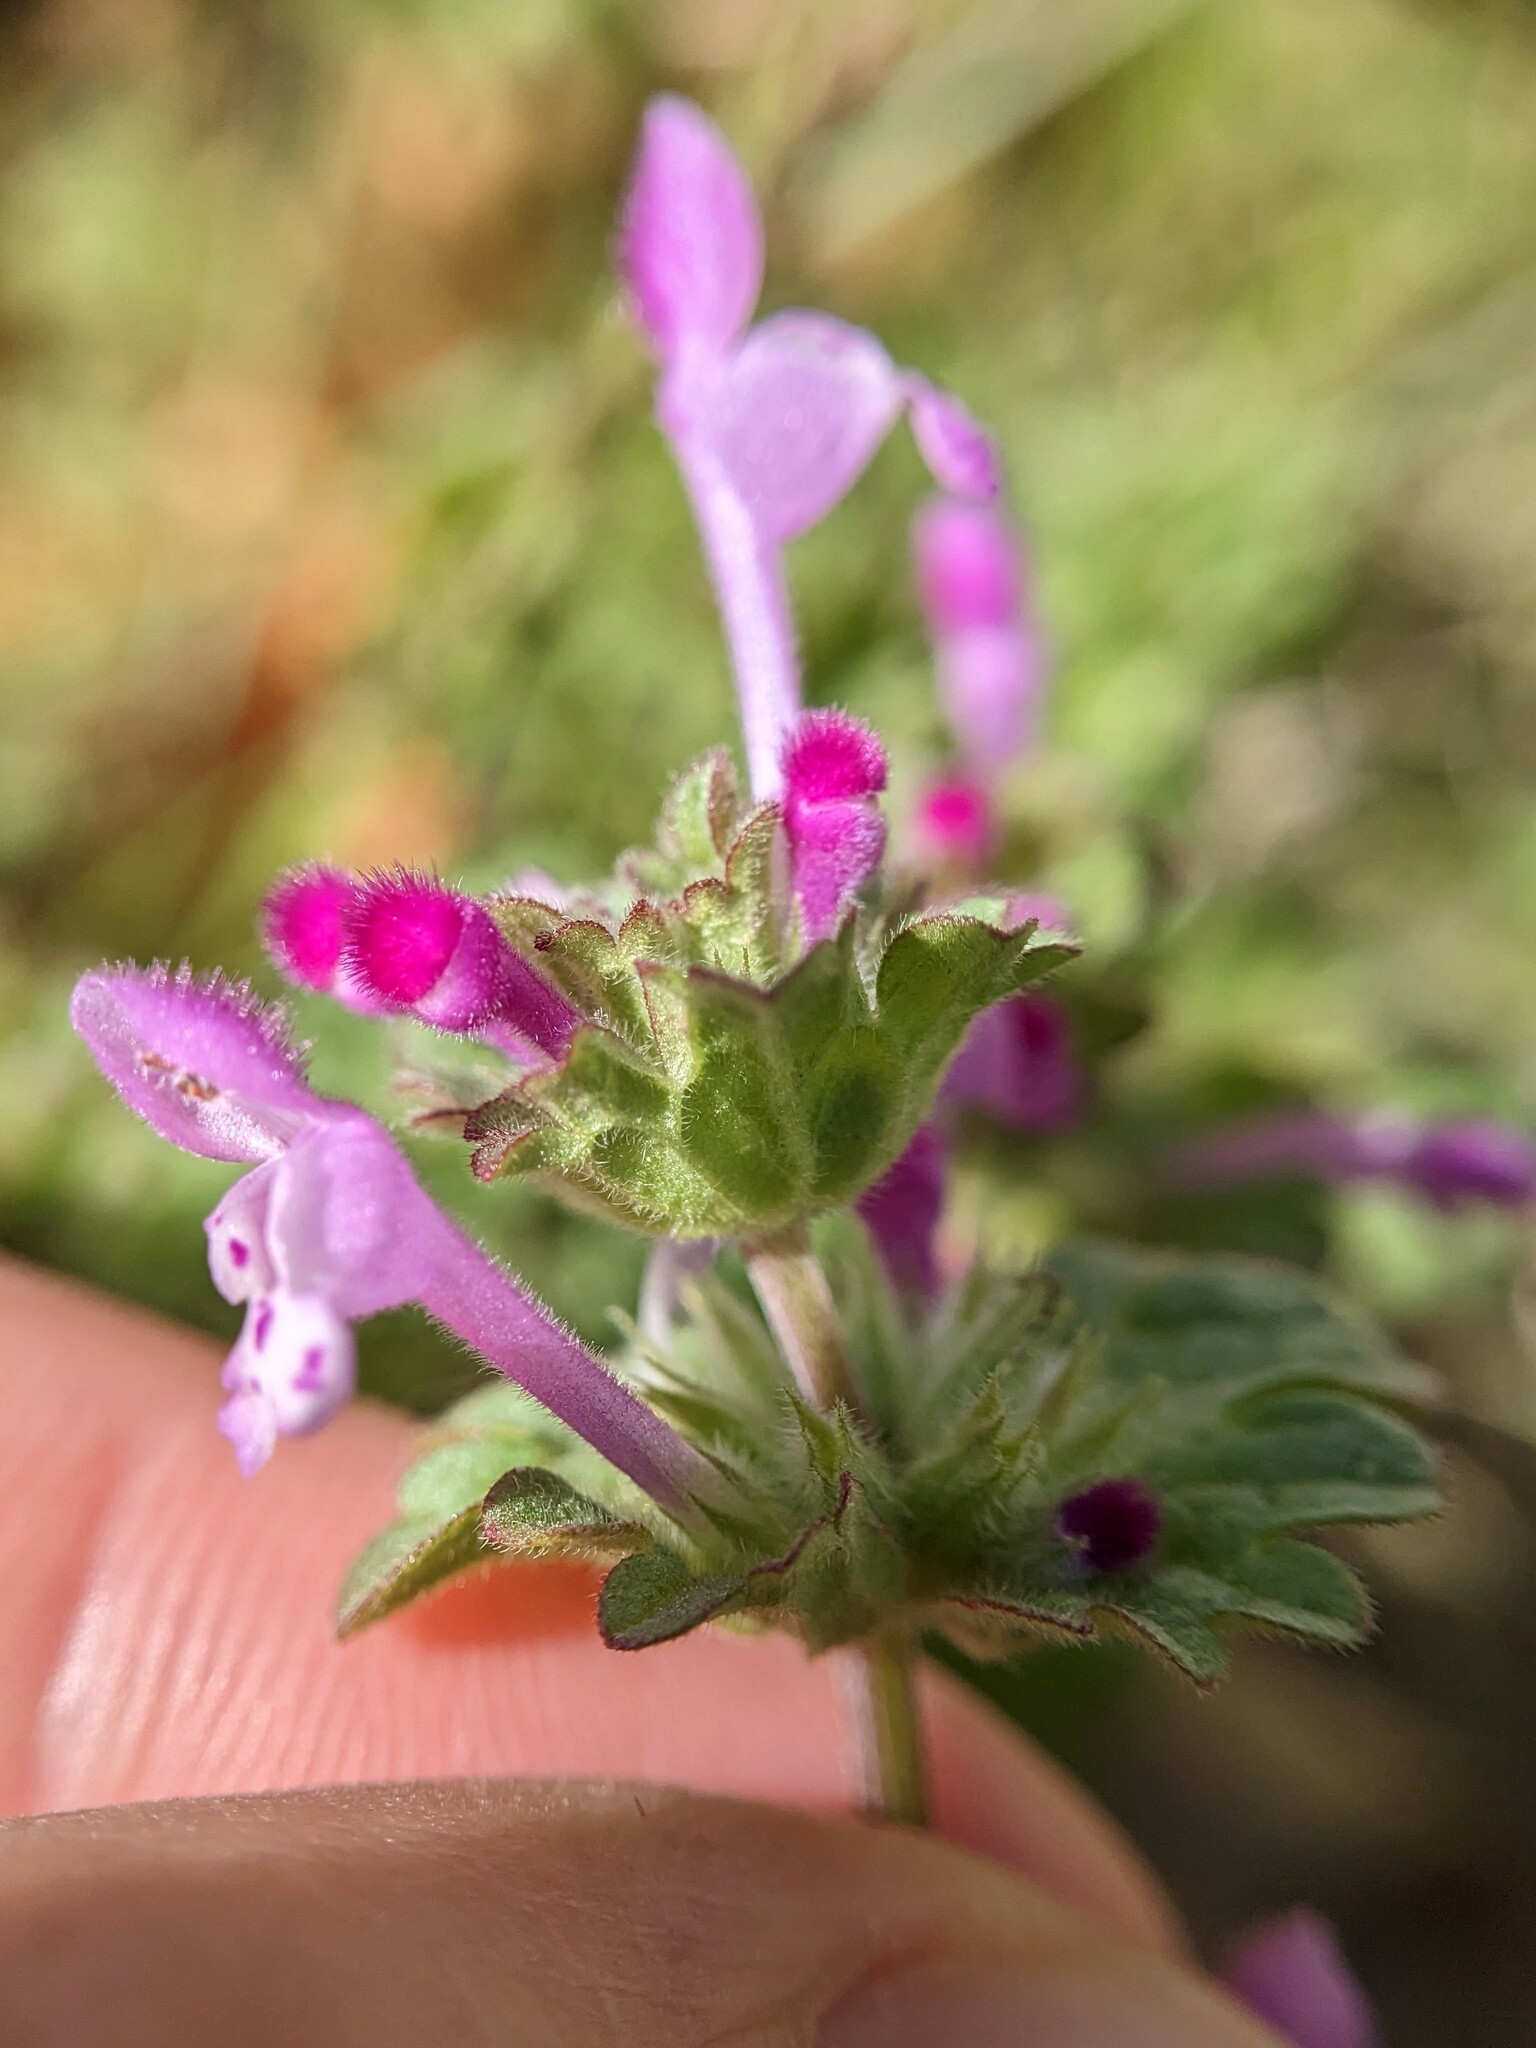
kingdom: Plantae
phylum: Tracheophyta
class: Magnoliopsida
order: Lamiales
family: Lamiaceae
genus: Lamium
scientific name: Lamium amplexicaule
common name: Henbit dead-nettle
